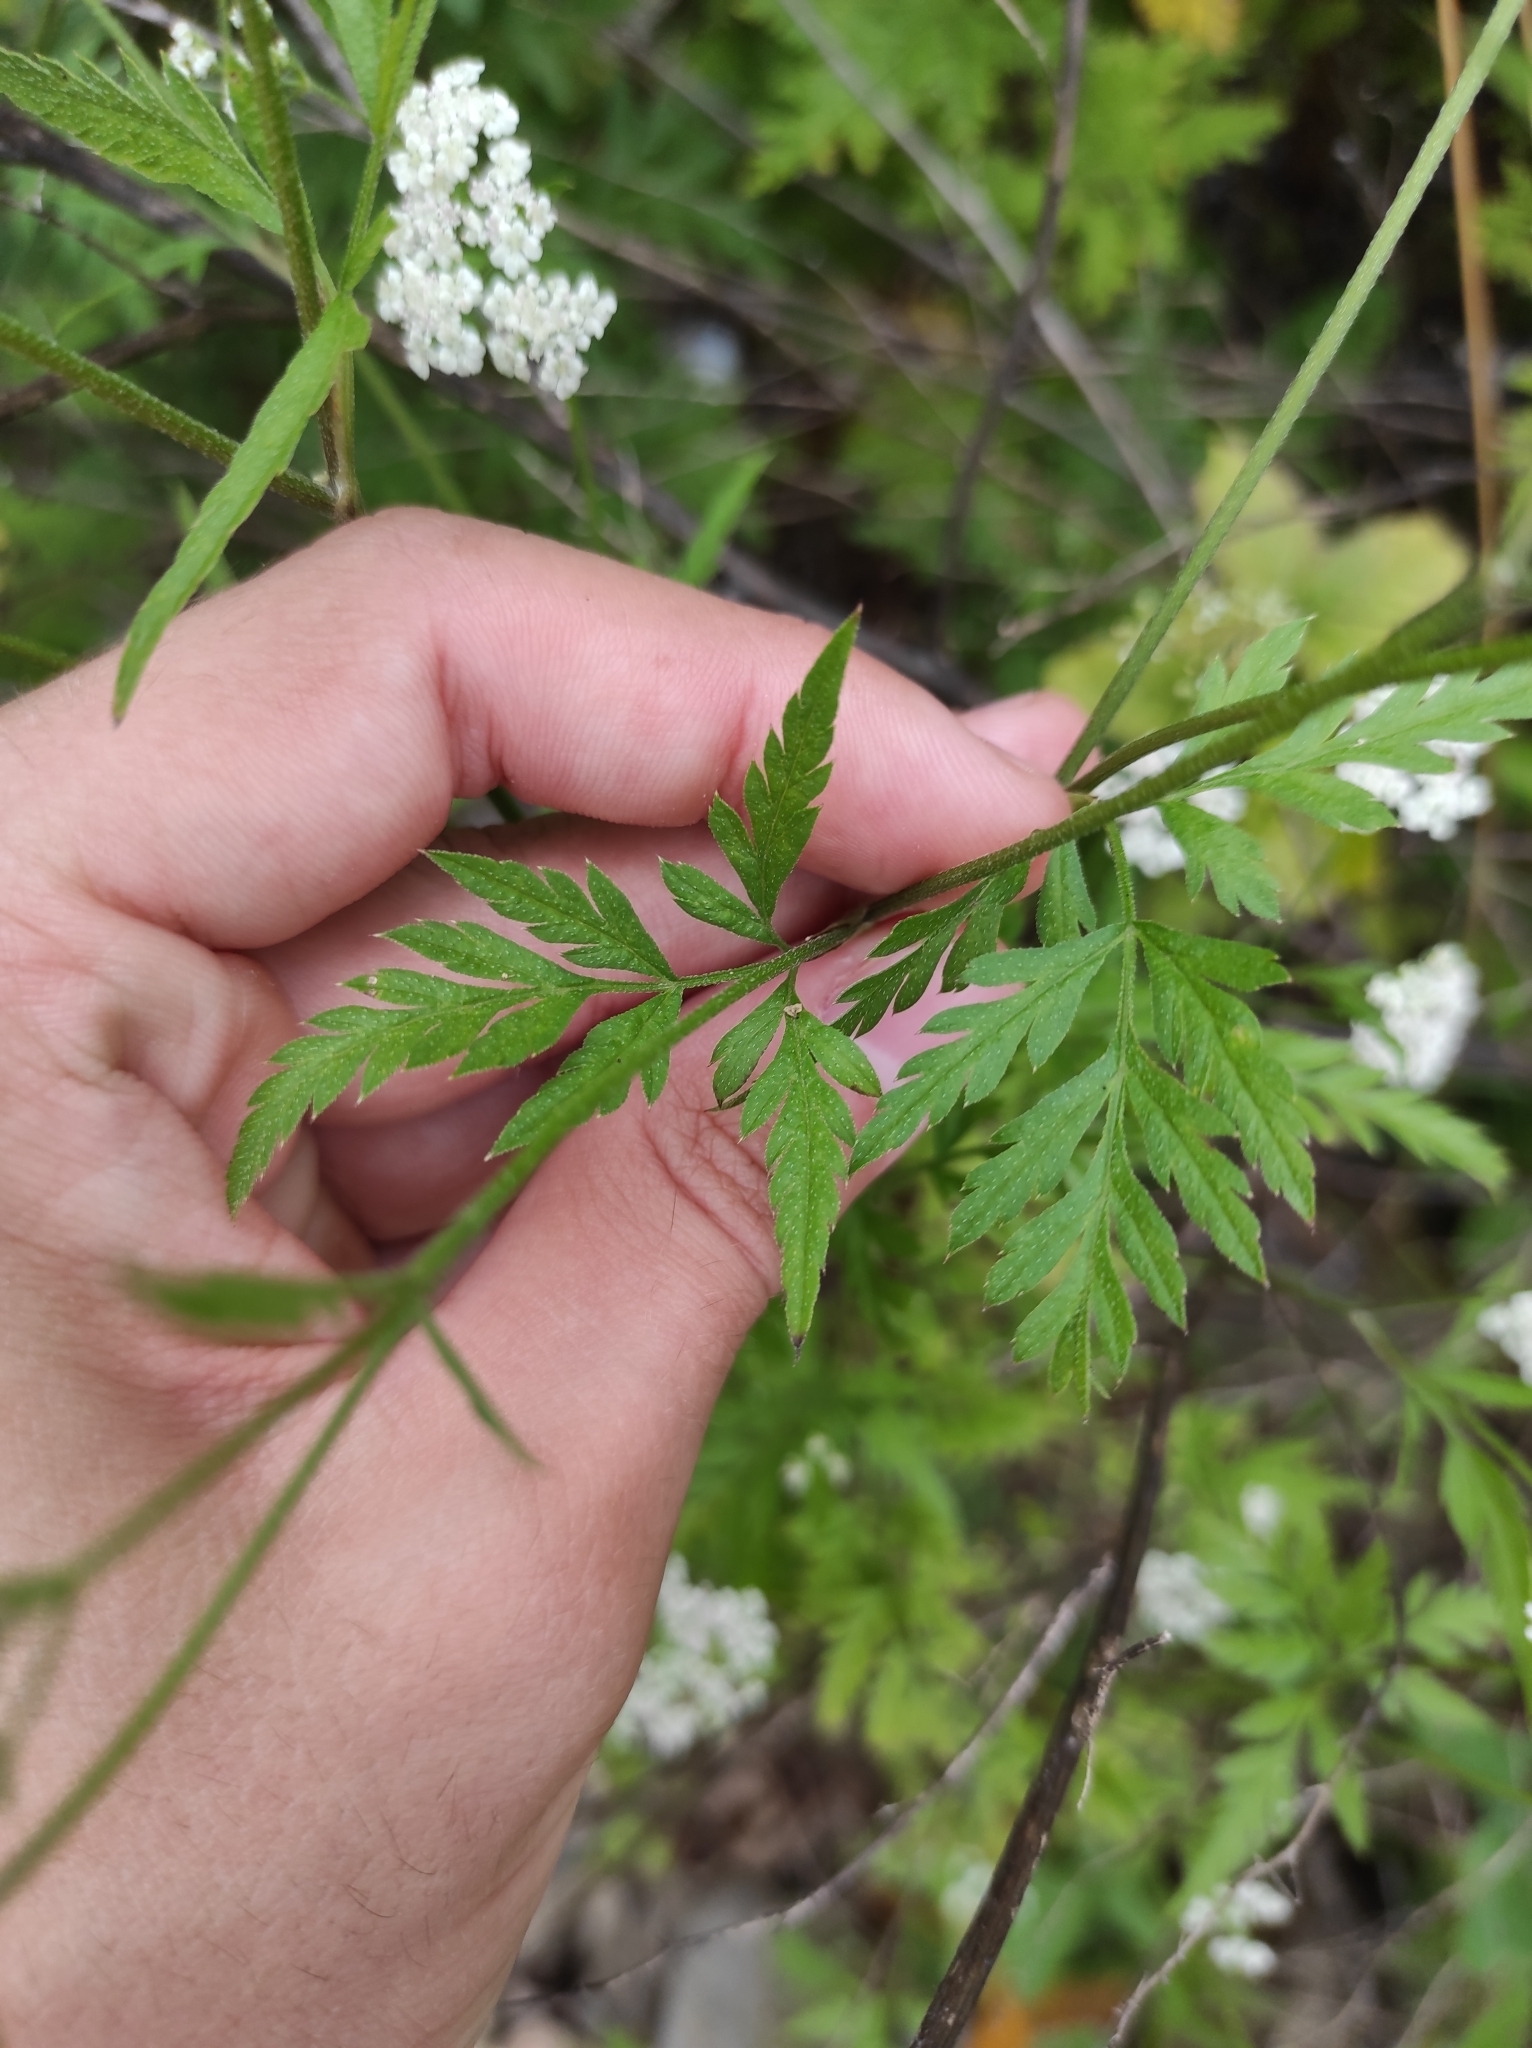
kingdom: Plantae
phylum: Tracheophyta
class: Magnoliopsida
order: Apiales
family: Apiaceae
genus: Torilis
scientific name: Torilis japonica
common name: Upright hedge-parsley
